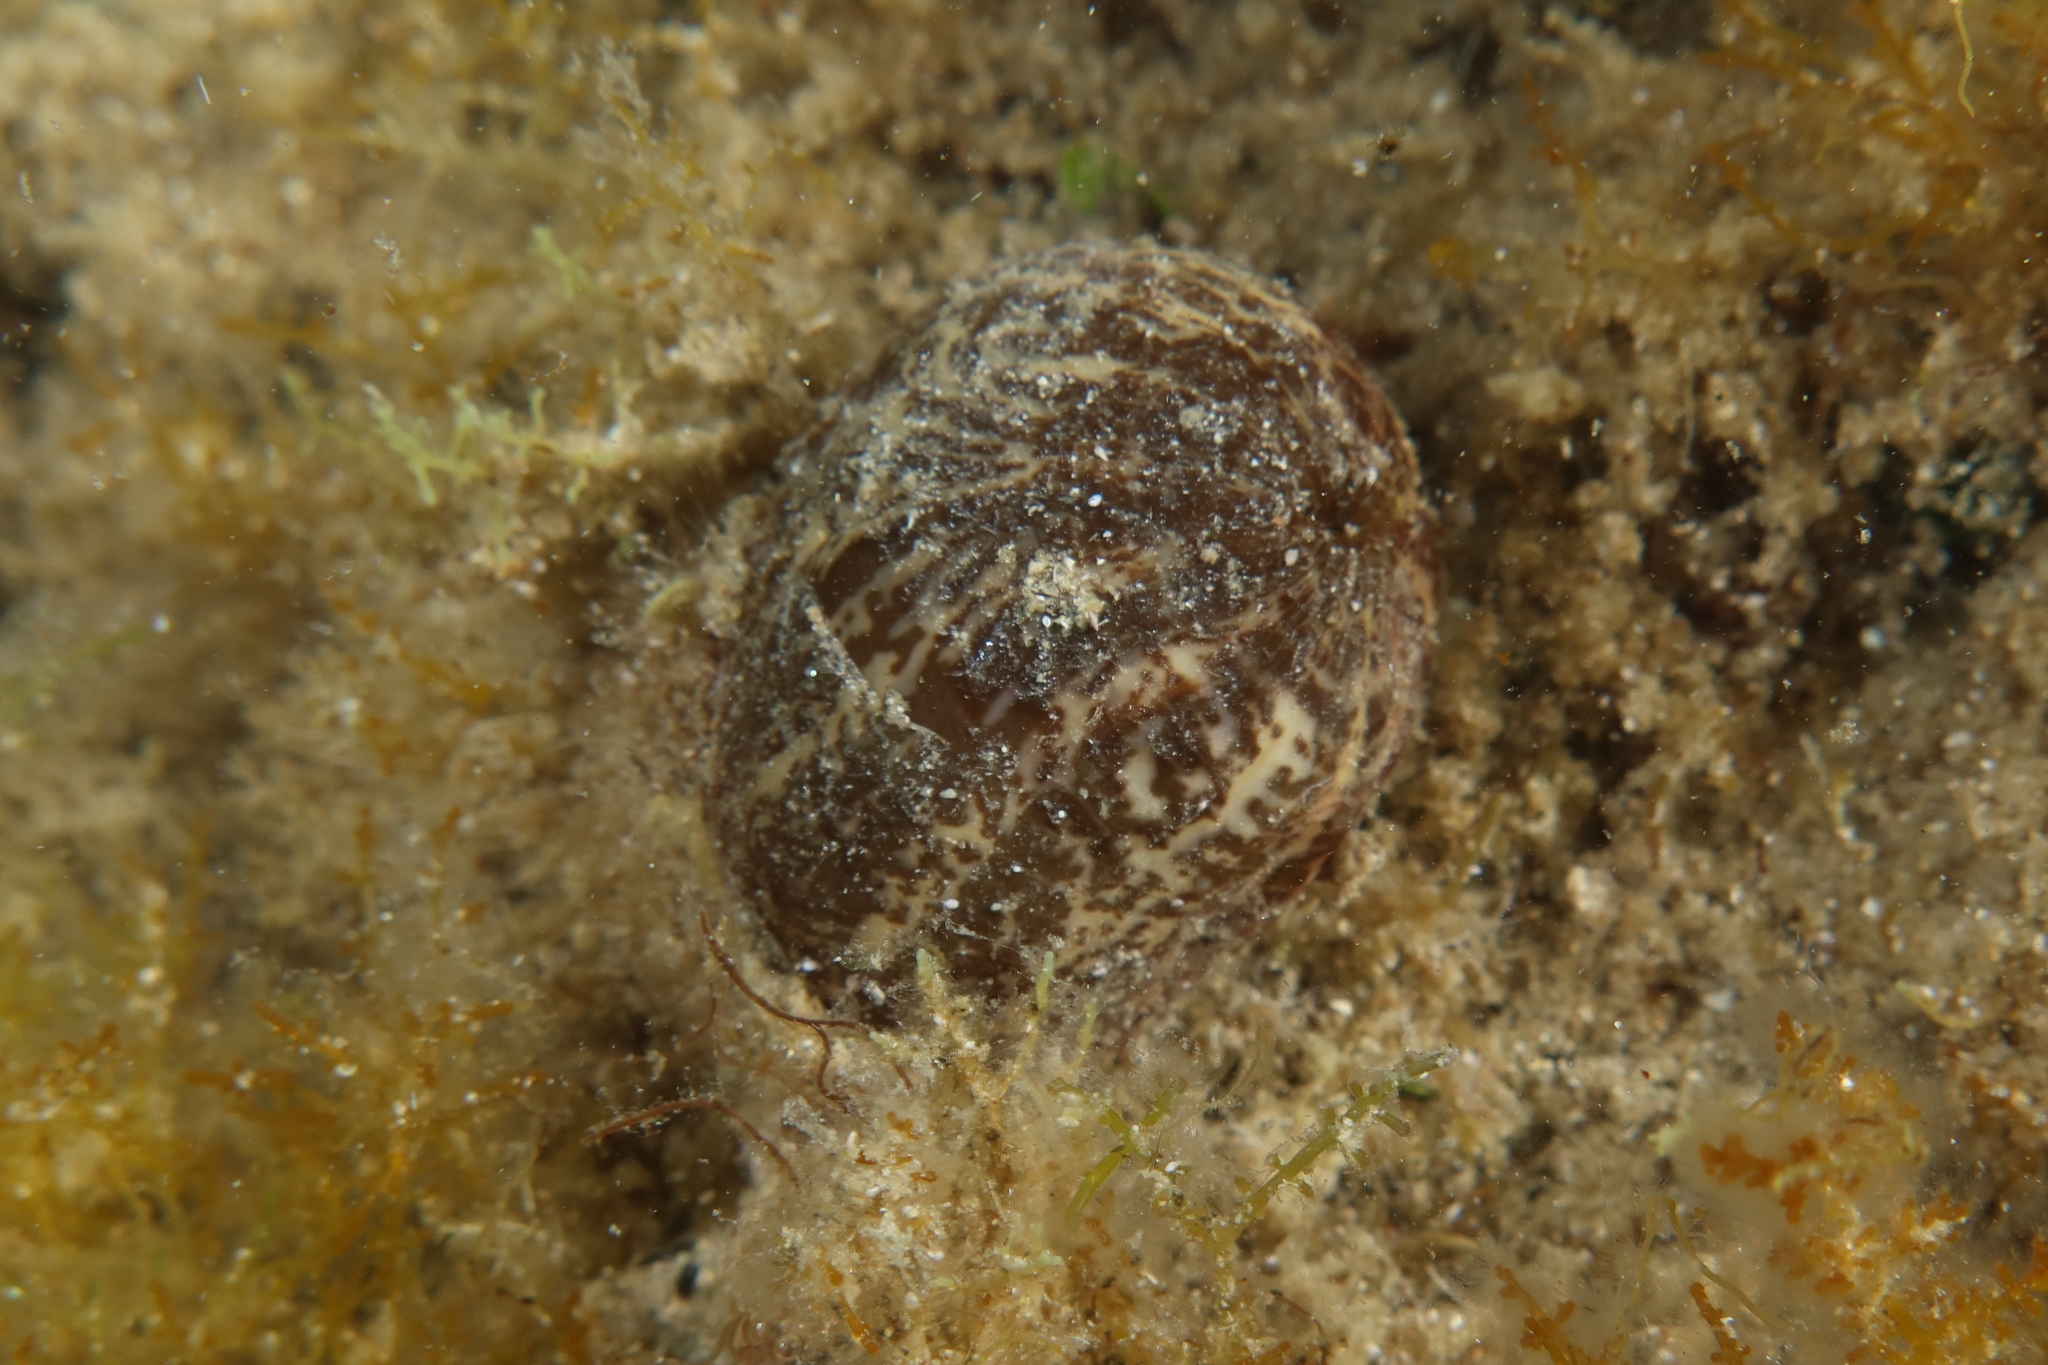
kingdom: Animalia
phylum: Cnidaria
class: Anthozoa
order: Actiniaria
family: Hormathiidae
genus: Calliactis
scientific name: Calliactis parasitica
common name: Parasitic anemone
